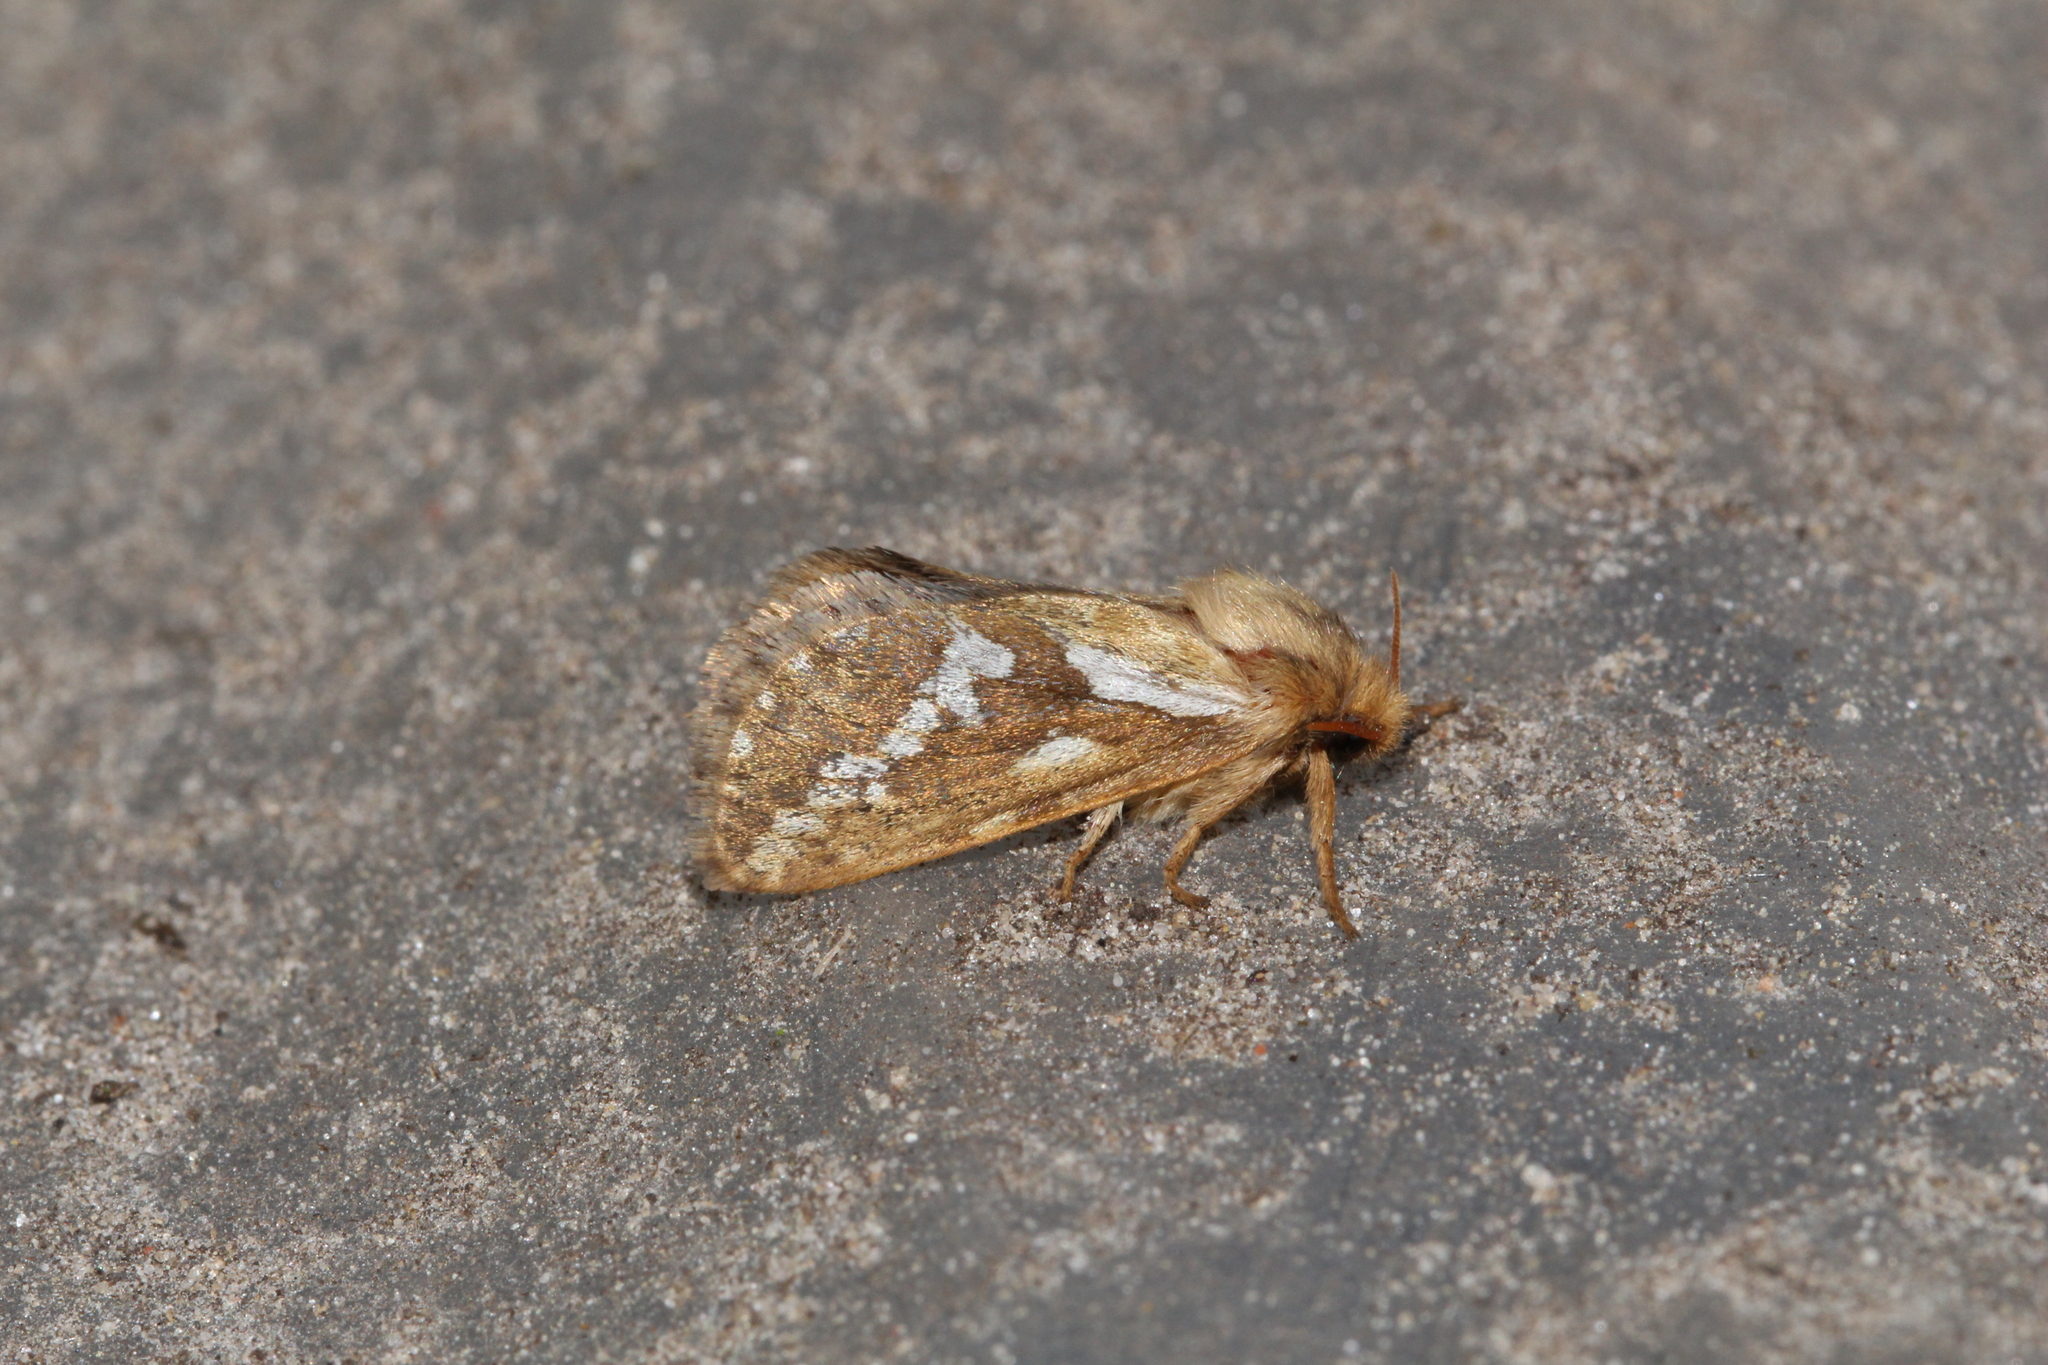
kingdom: Animalia
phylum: Arthropoda
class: Insecta
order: Lepidoptera
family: Hepialidae
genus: Korscheltellus
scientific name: Korscheltellus lupulina
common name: Common swift
